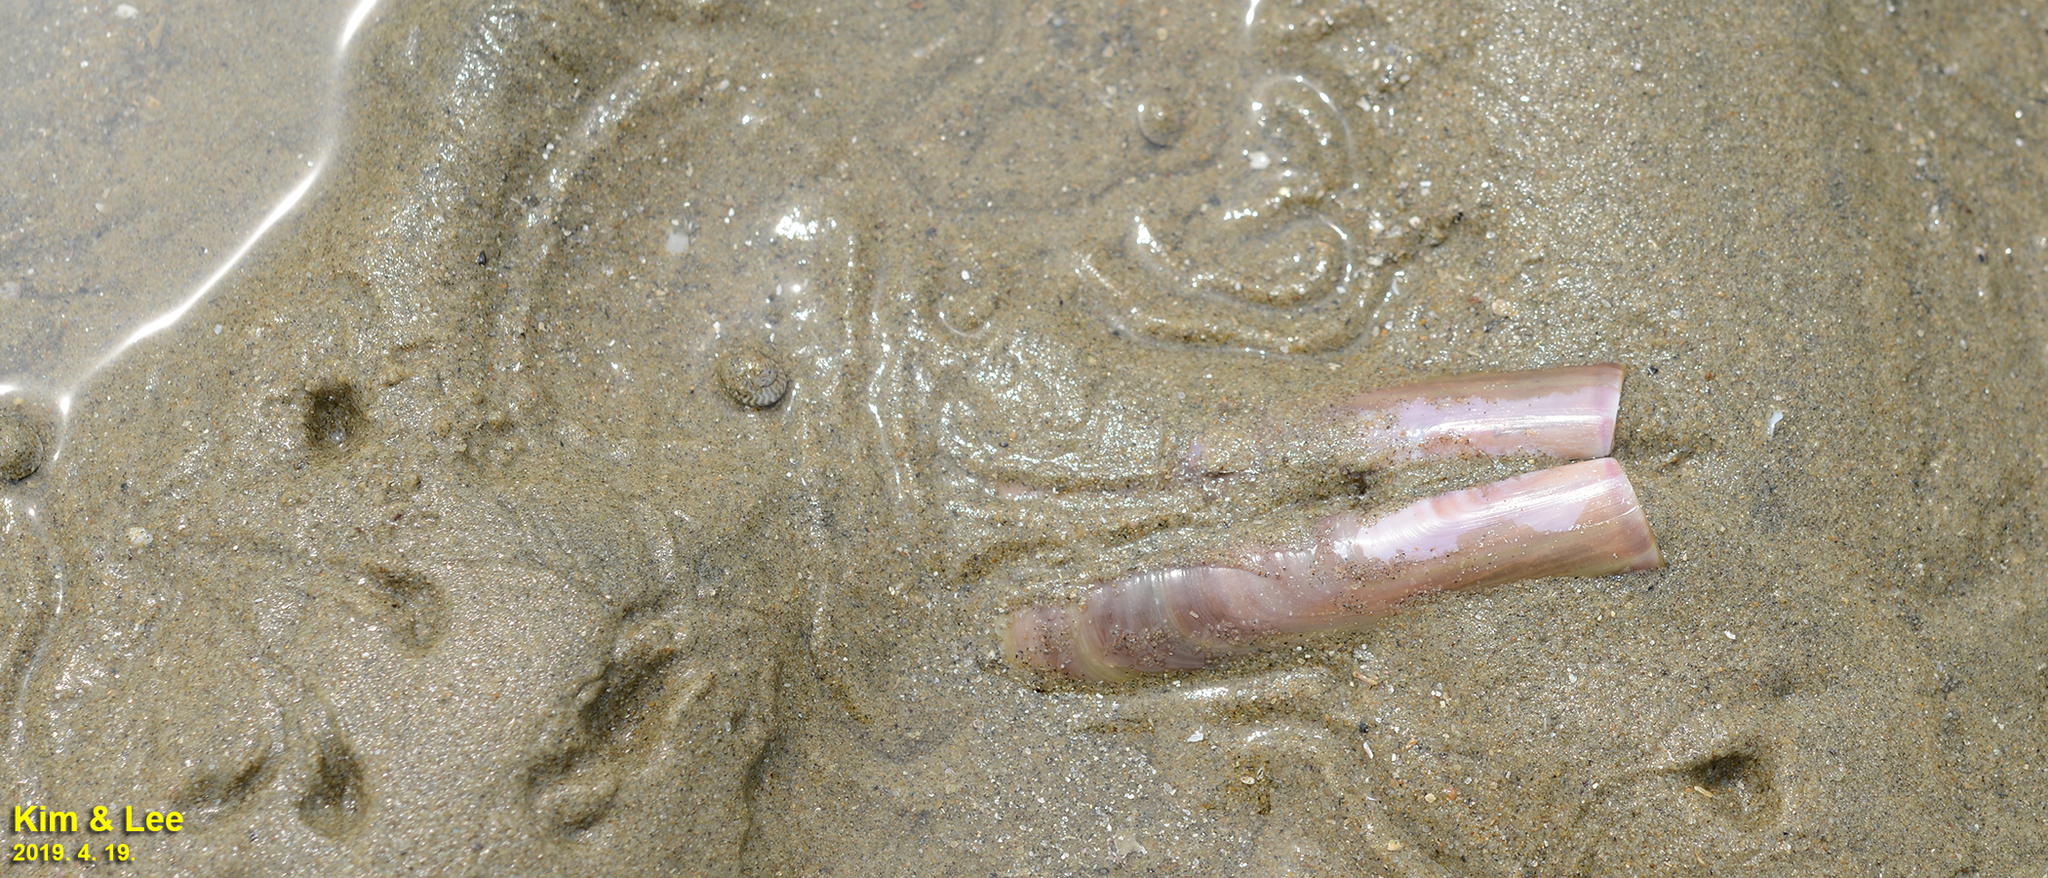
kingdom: Animalia
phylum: Mollusca
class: Bivalvia
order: Adapedonta
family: Solenidae
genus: Solen
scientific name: Solen grandis
